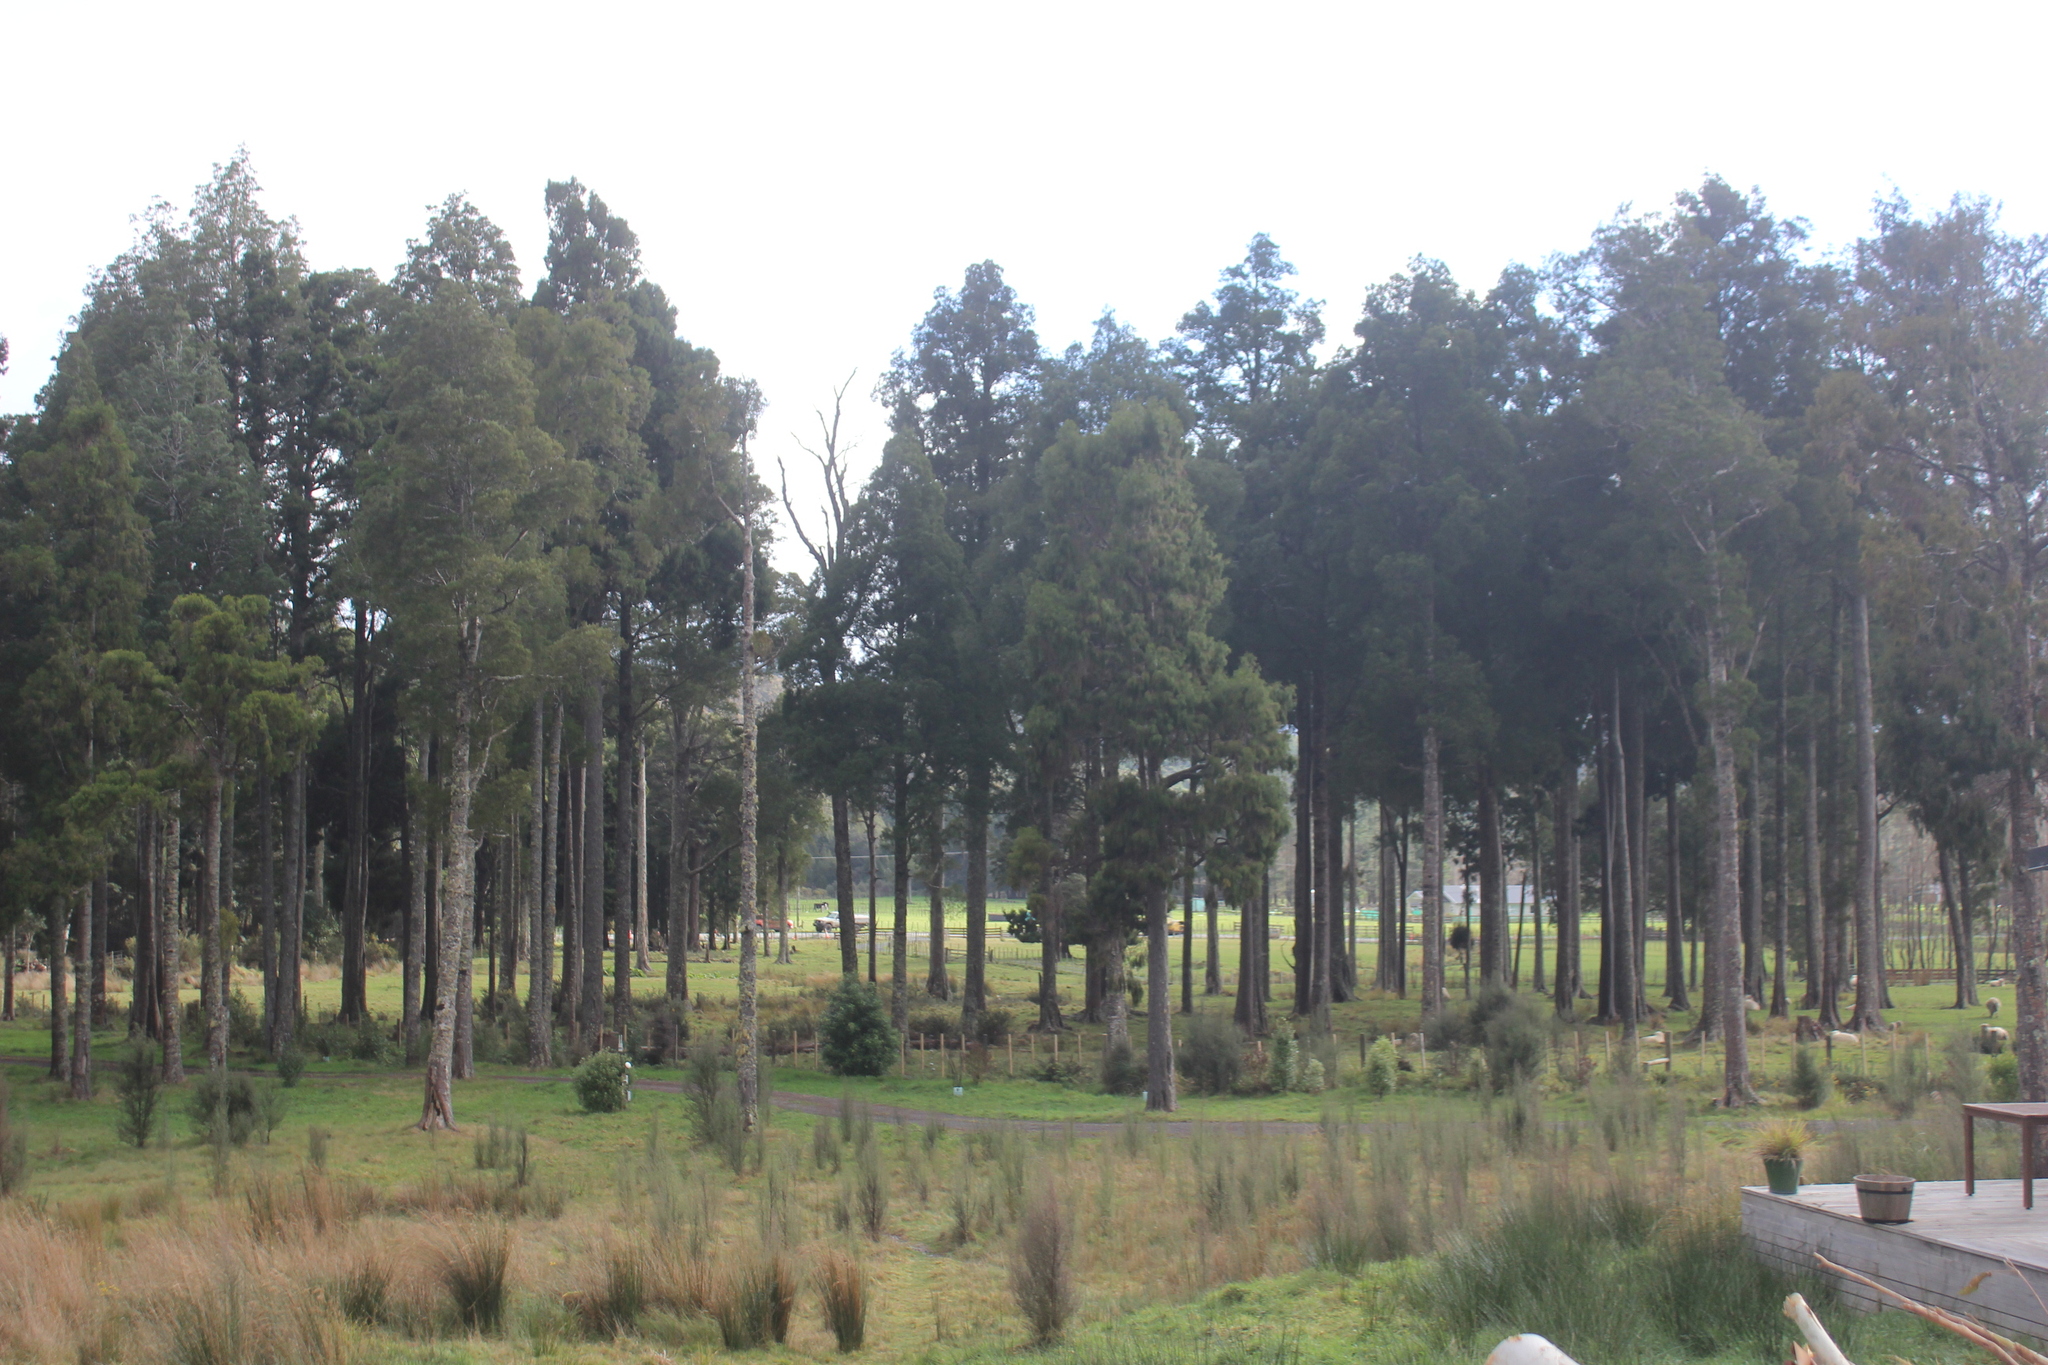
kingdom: Plantae
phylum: Tracheophyta
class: Pinopsida
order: Pinales
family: Podocarpaceae
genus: Dacrycarpus
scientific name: Dacrycarpus dacrydioides
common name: White pine
